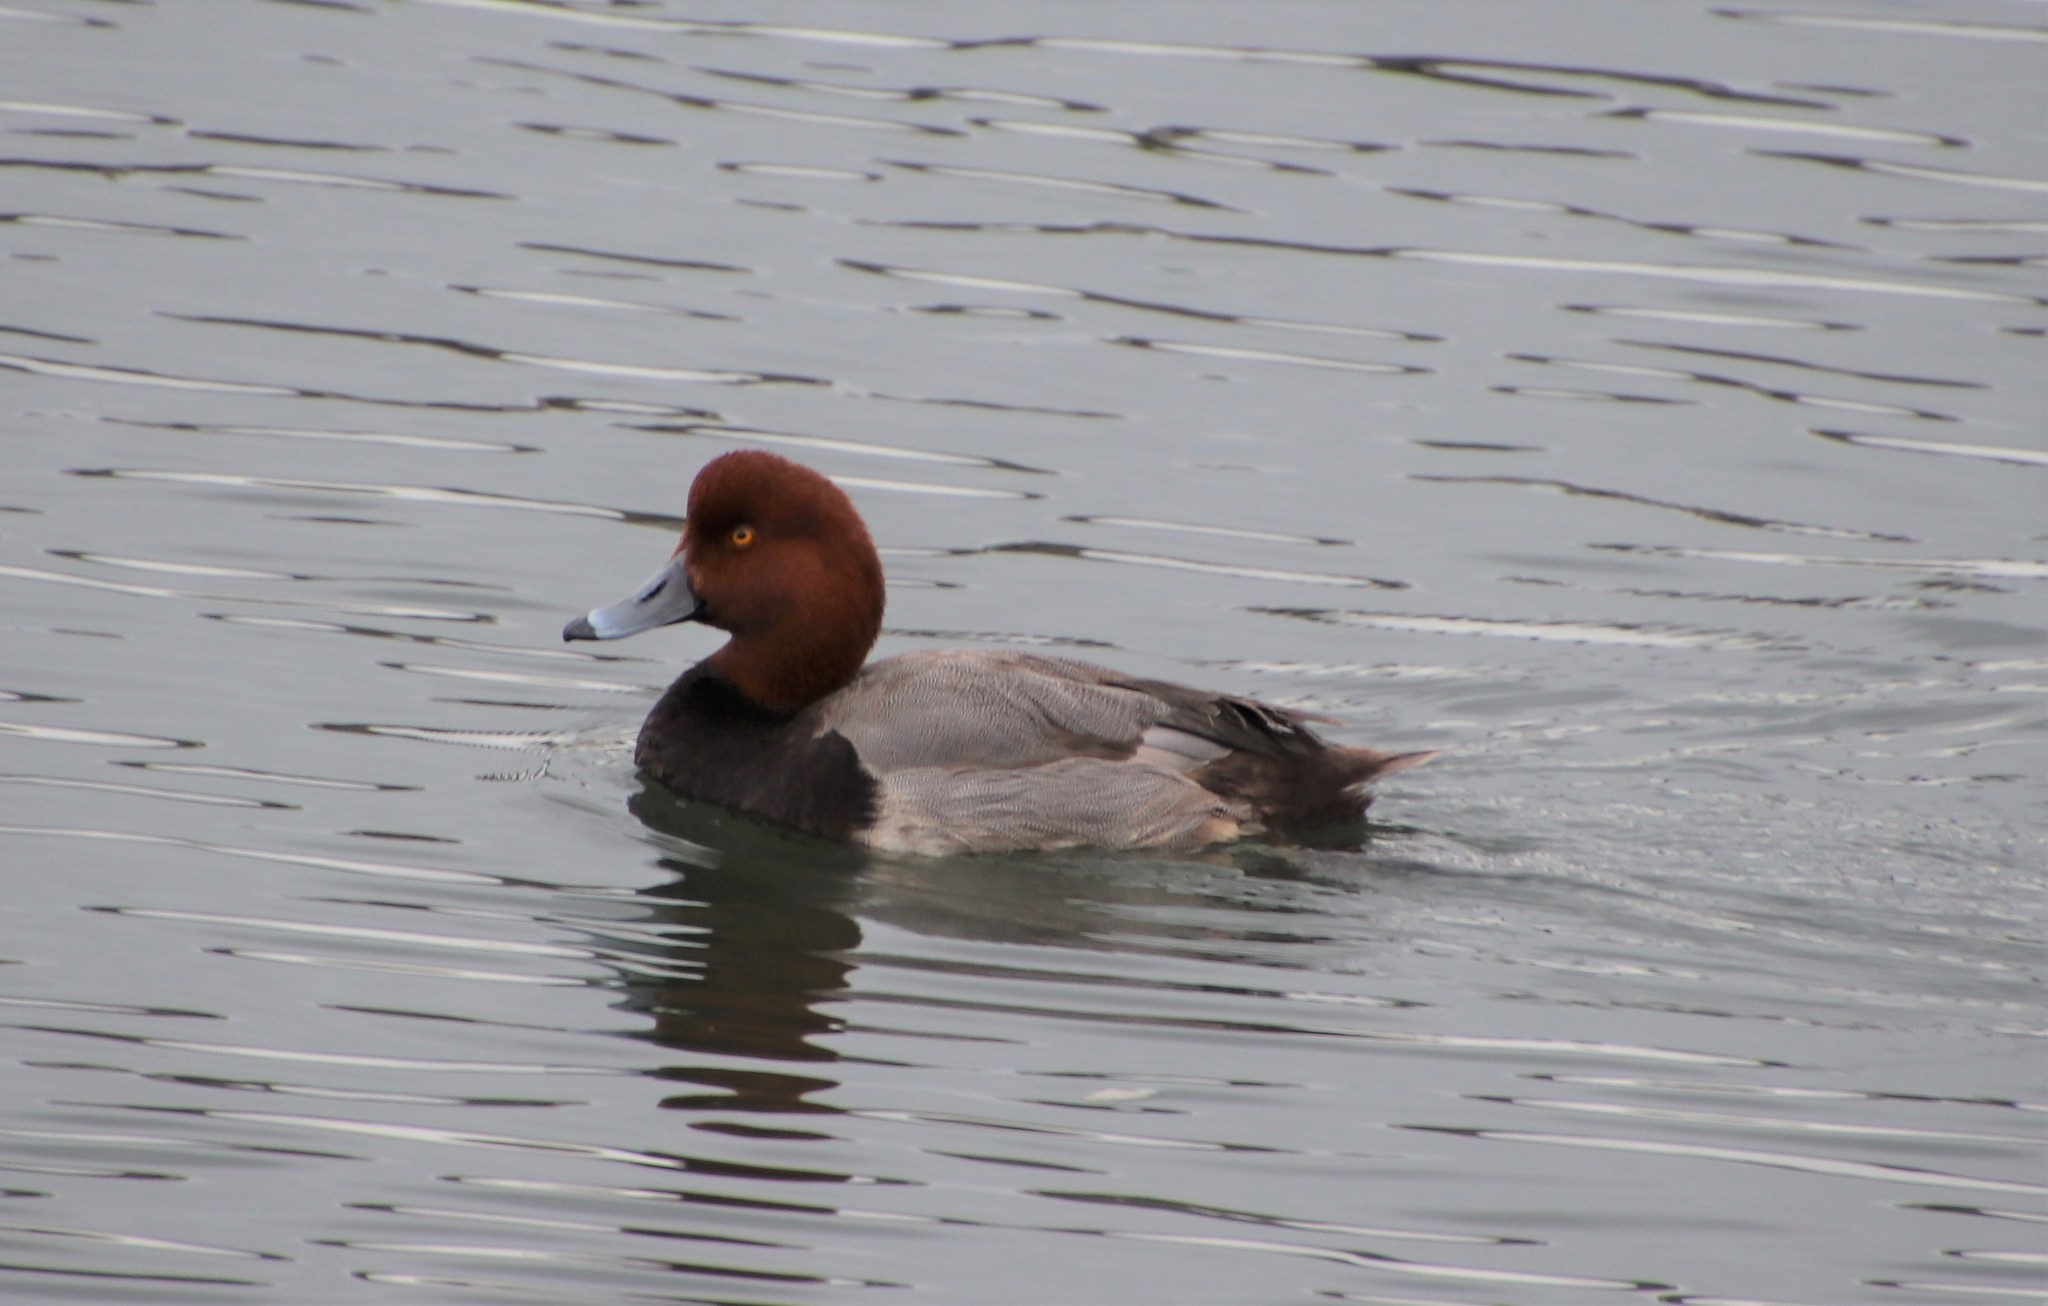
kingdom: Animalia
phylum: Chordata
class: Aves
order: Anseriformes
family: Anatidae
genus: Aythya
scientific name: Aythya americana
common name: Redhead
